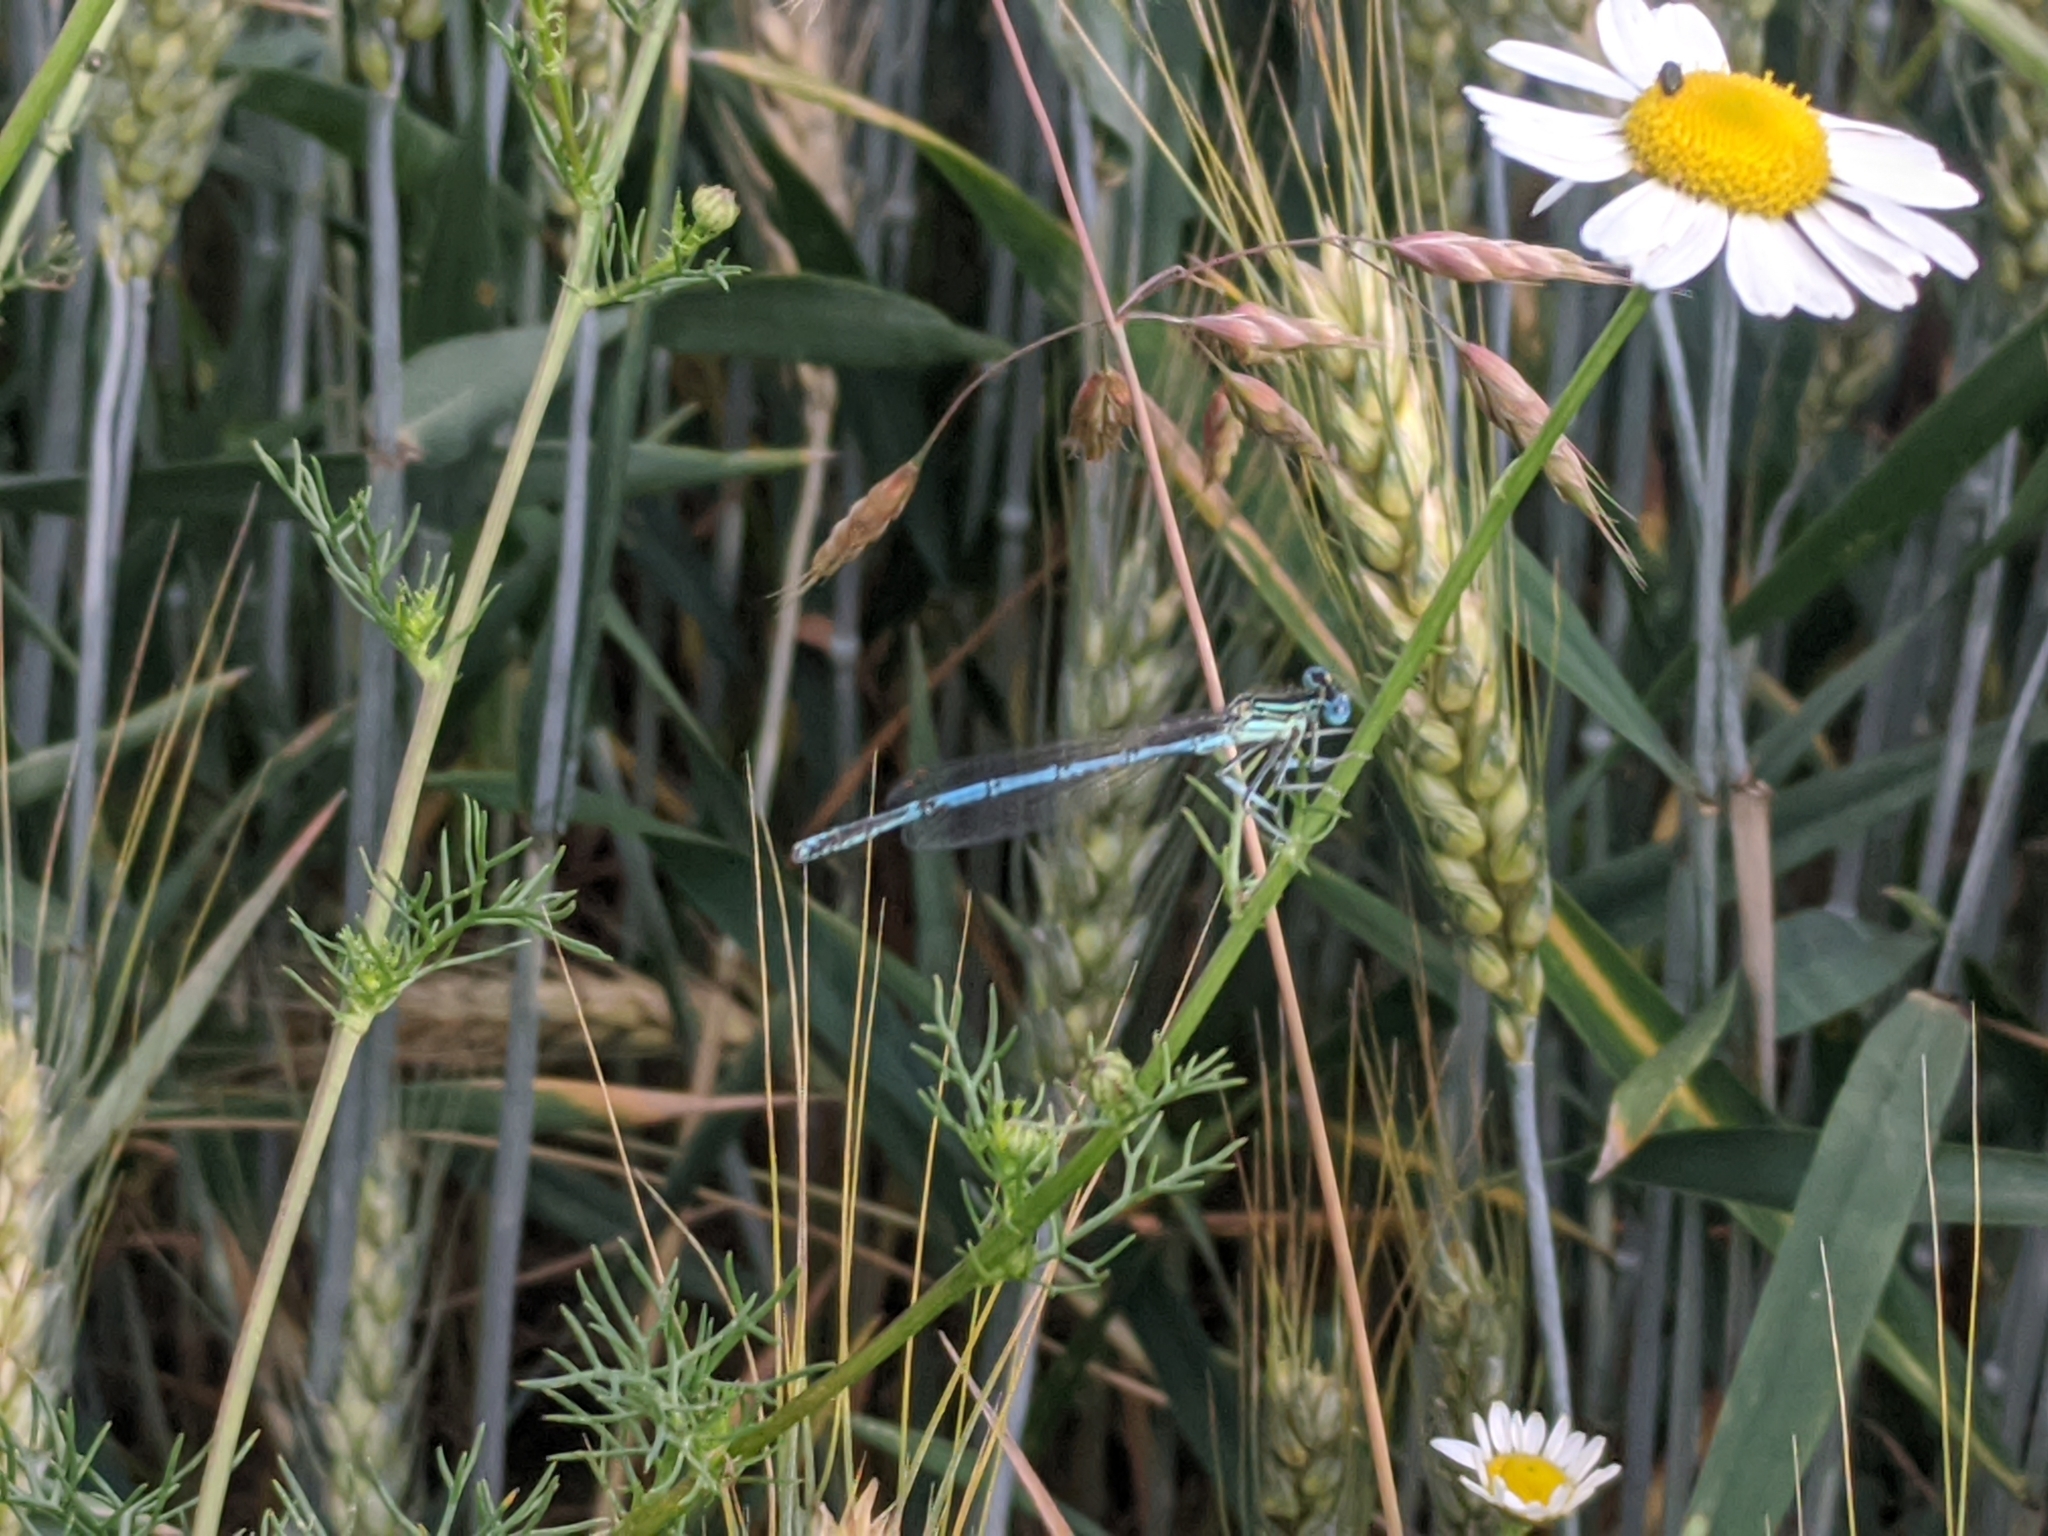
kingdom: Animalia
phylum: Arthropoda
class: Insecta
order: Odonata
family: Platycnemididae
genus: Platycnemis
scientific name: Platycnemis pennipes
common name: White-legged damselfly
